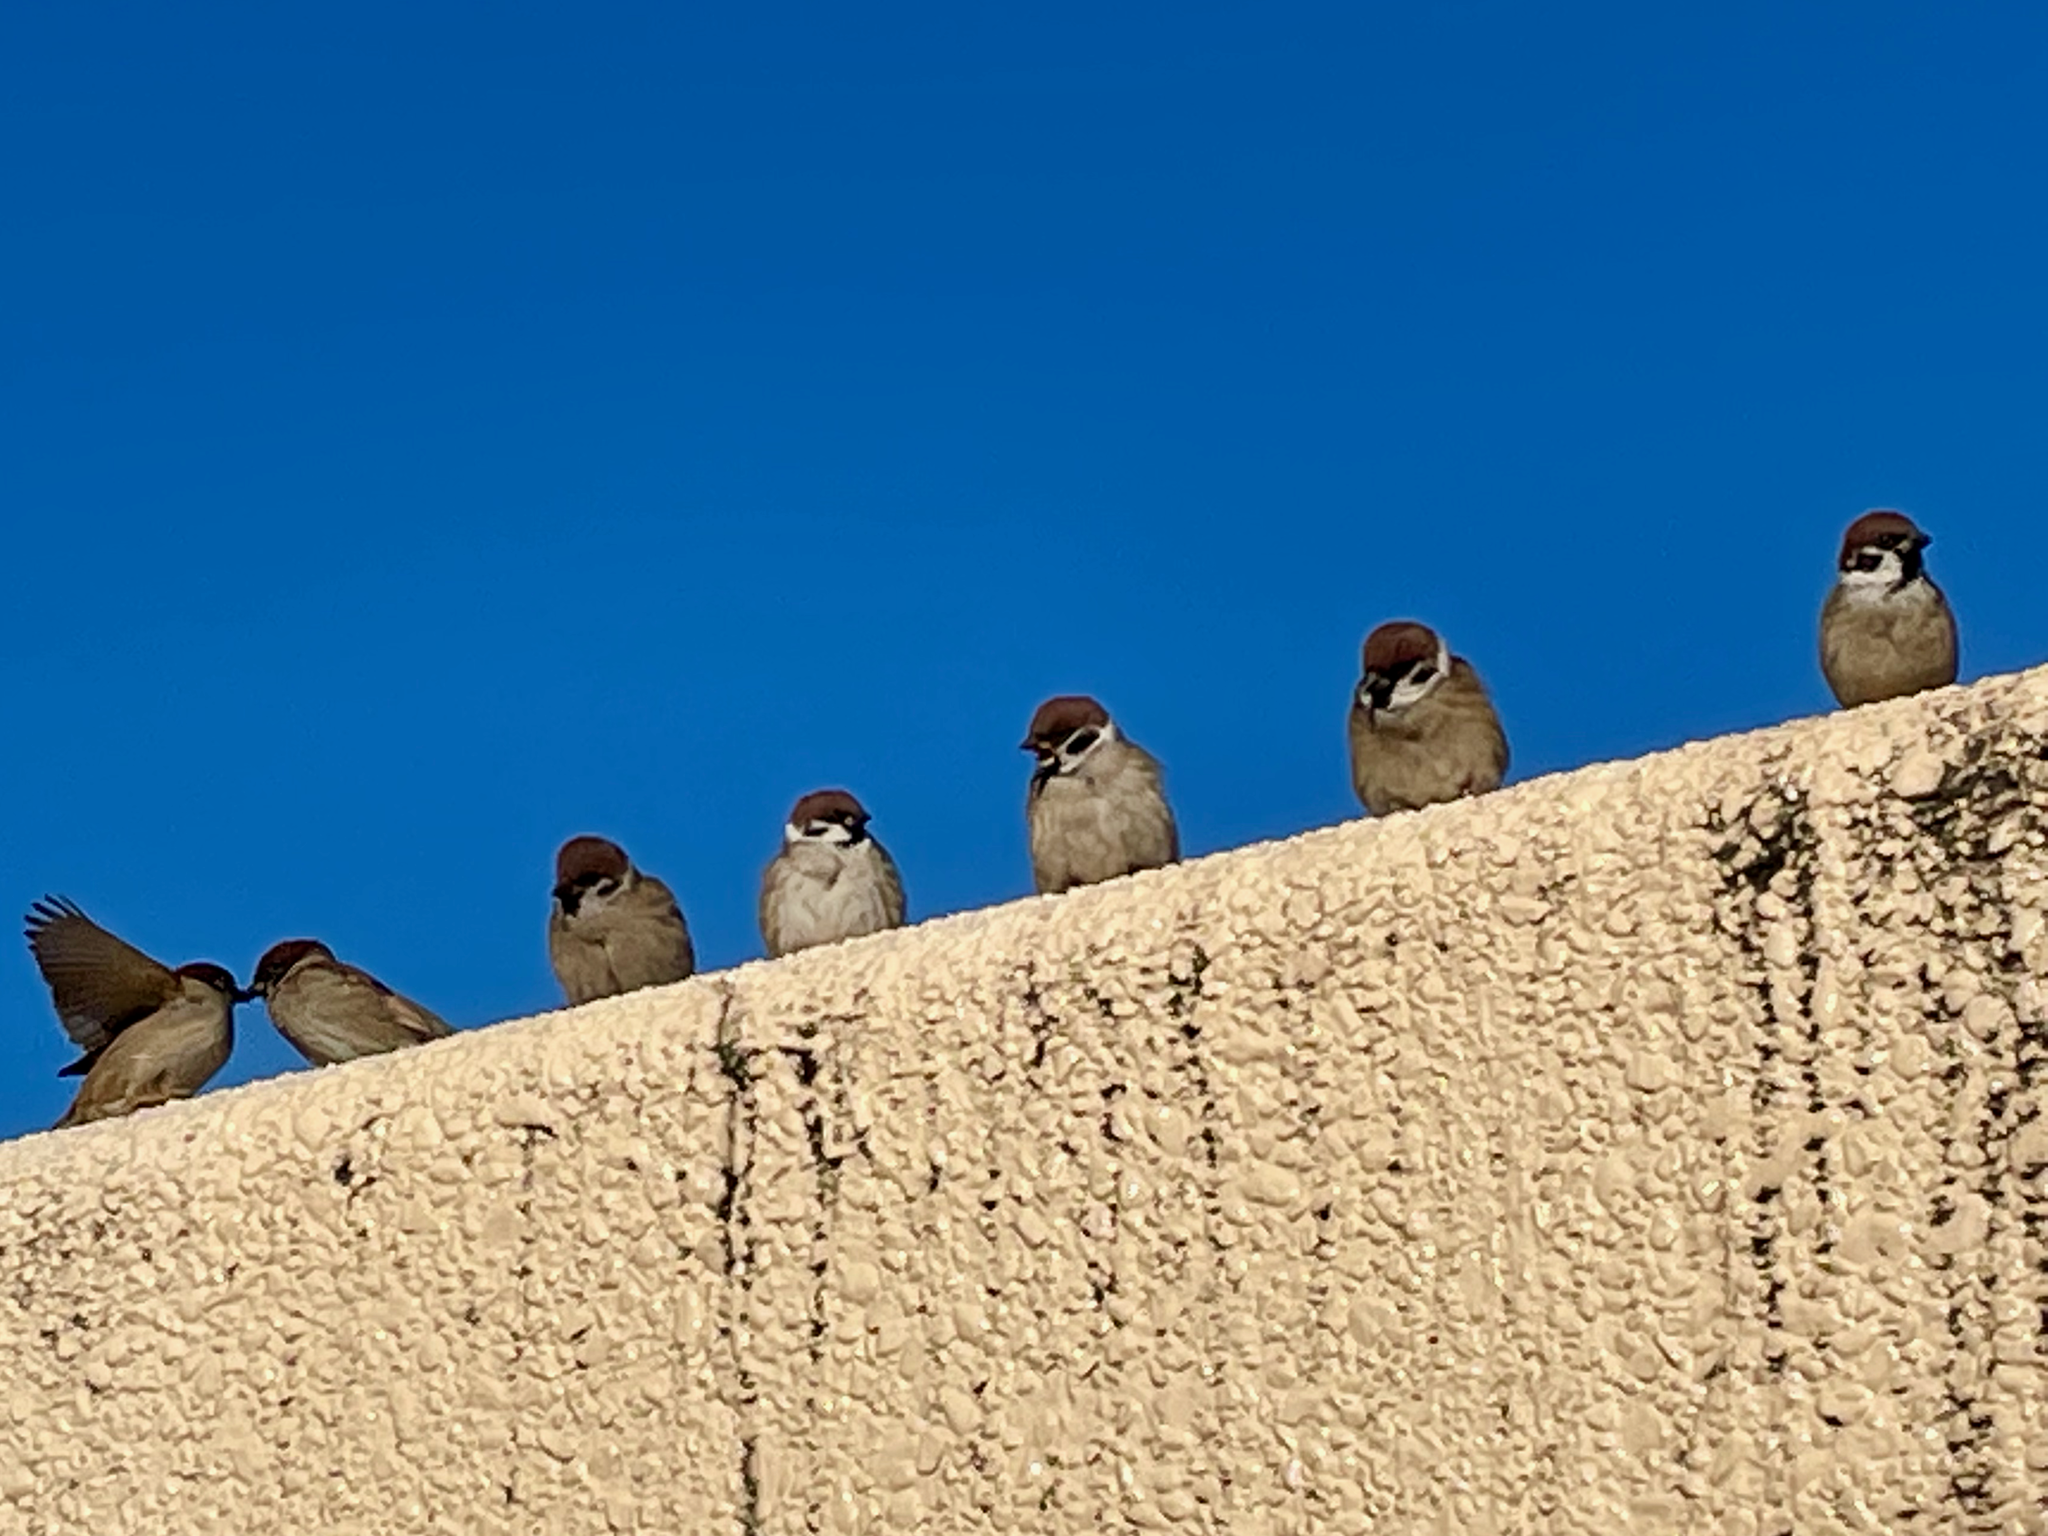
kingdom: Animalia
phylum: Chordata
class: Aves
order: Passeriformes
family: Passeridae
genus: Passer
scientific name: Passer montanus
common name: Eurasian tree sparrow
